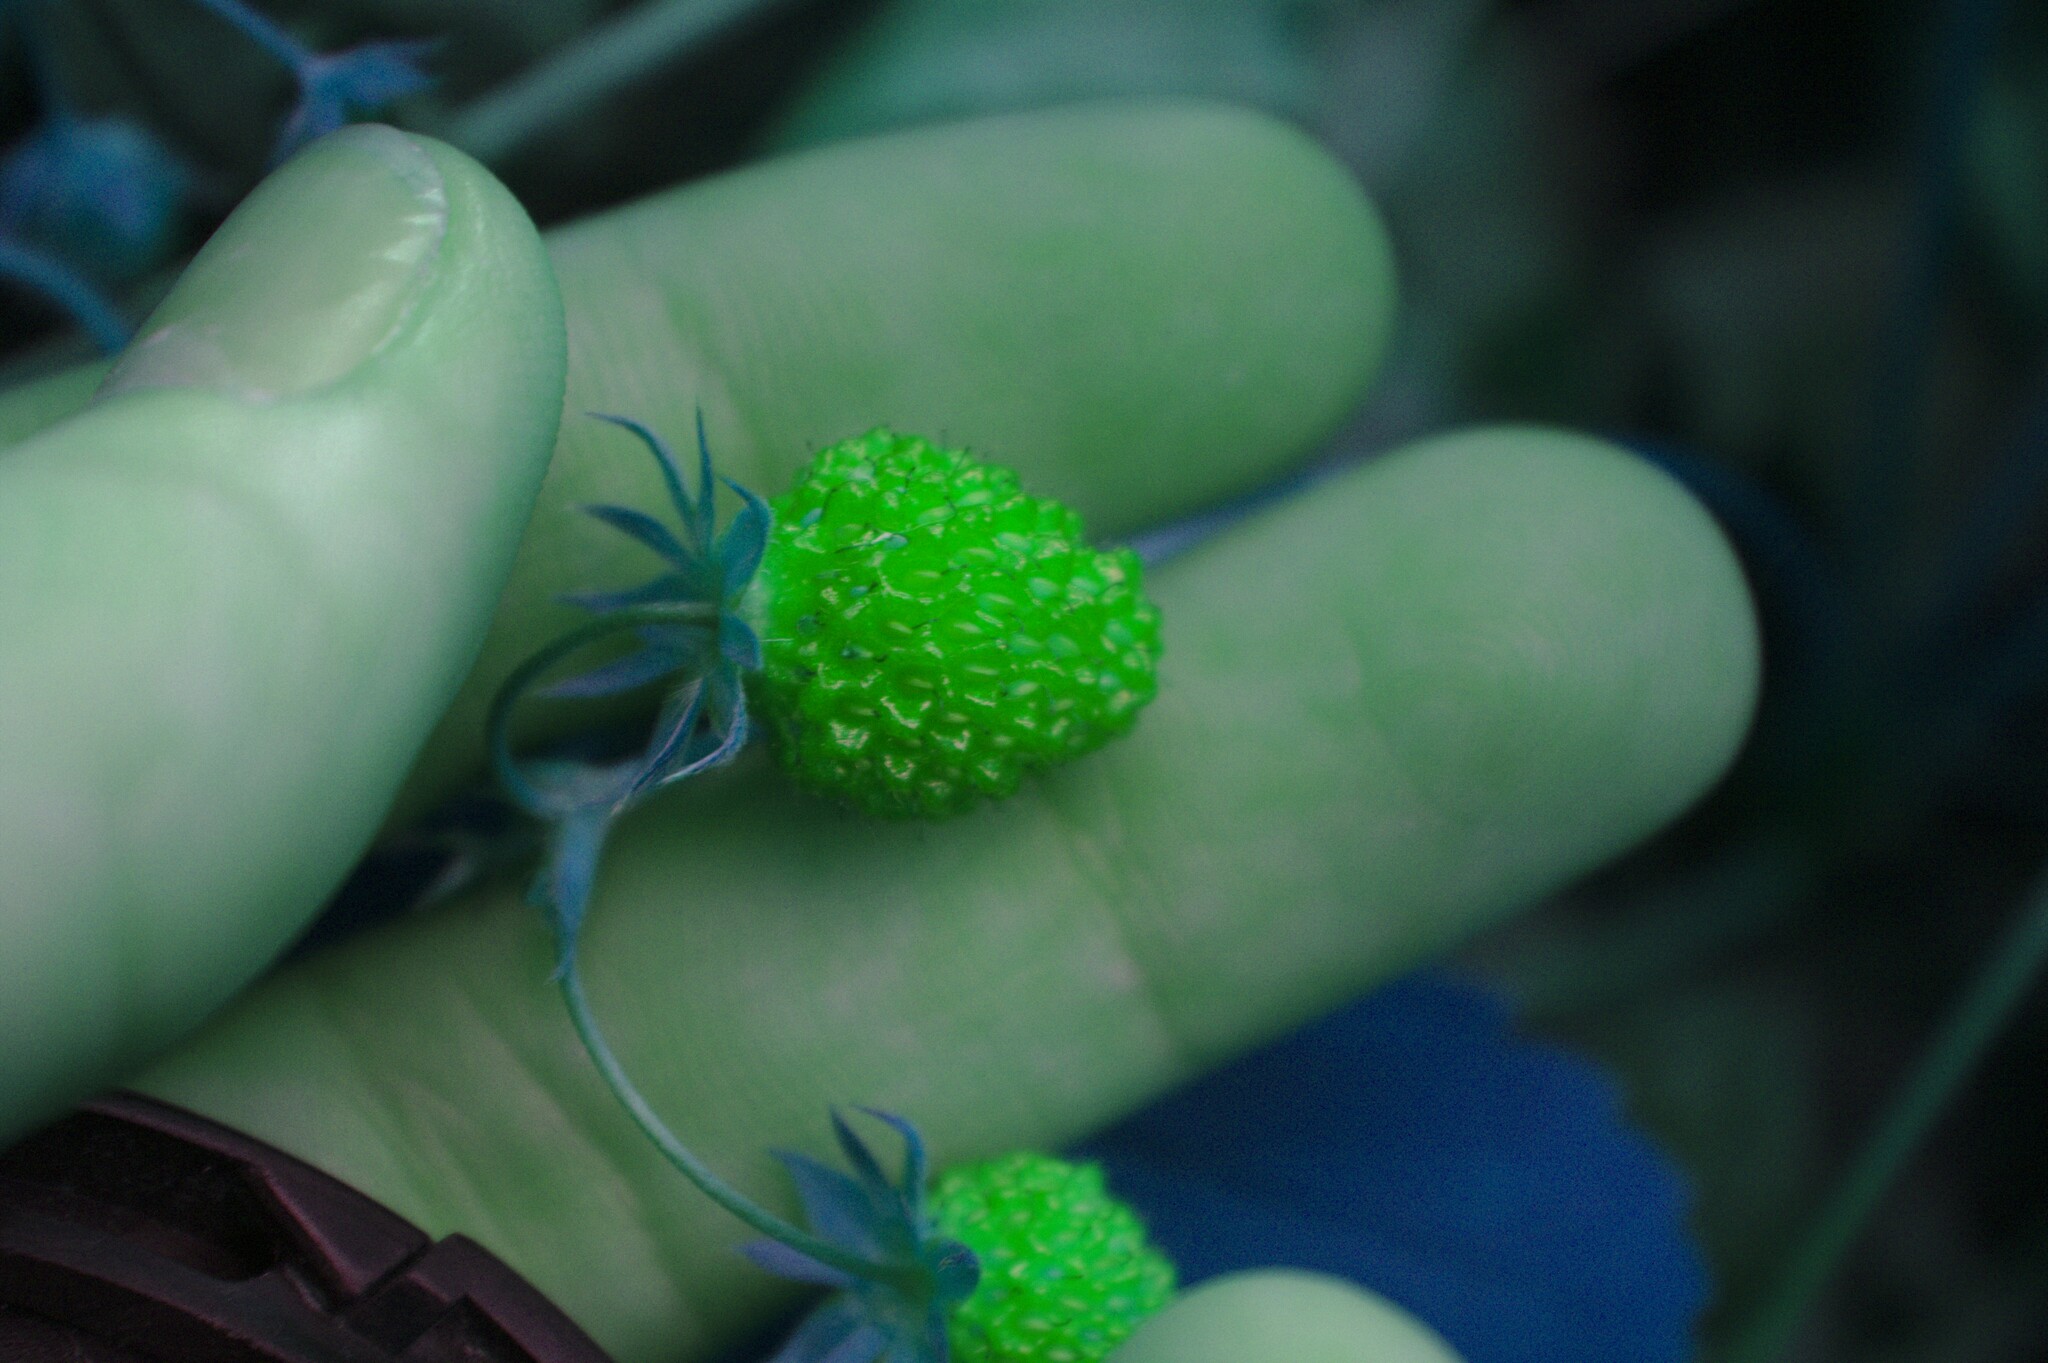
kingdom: Plantae
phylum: Tracheophyta
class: Magnoliopsida
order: Rosales
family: Rosaceae
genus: Fragaria
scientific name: Fragaria virginiana
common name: Thickleaved wild strawberry
